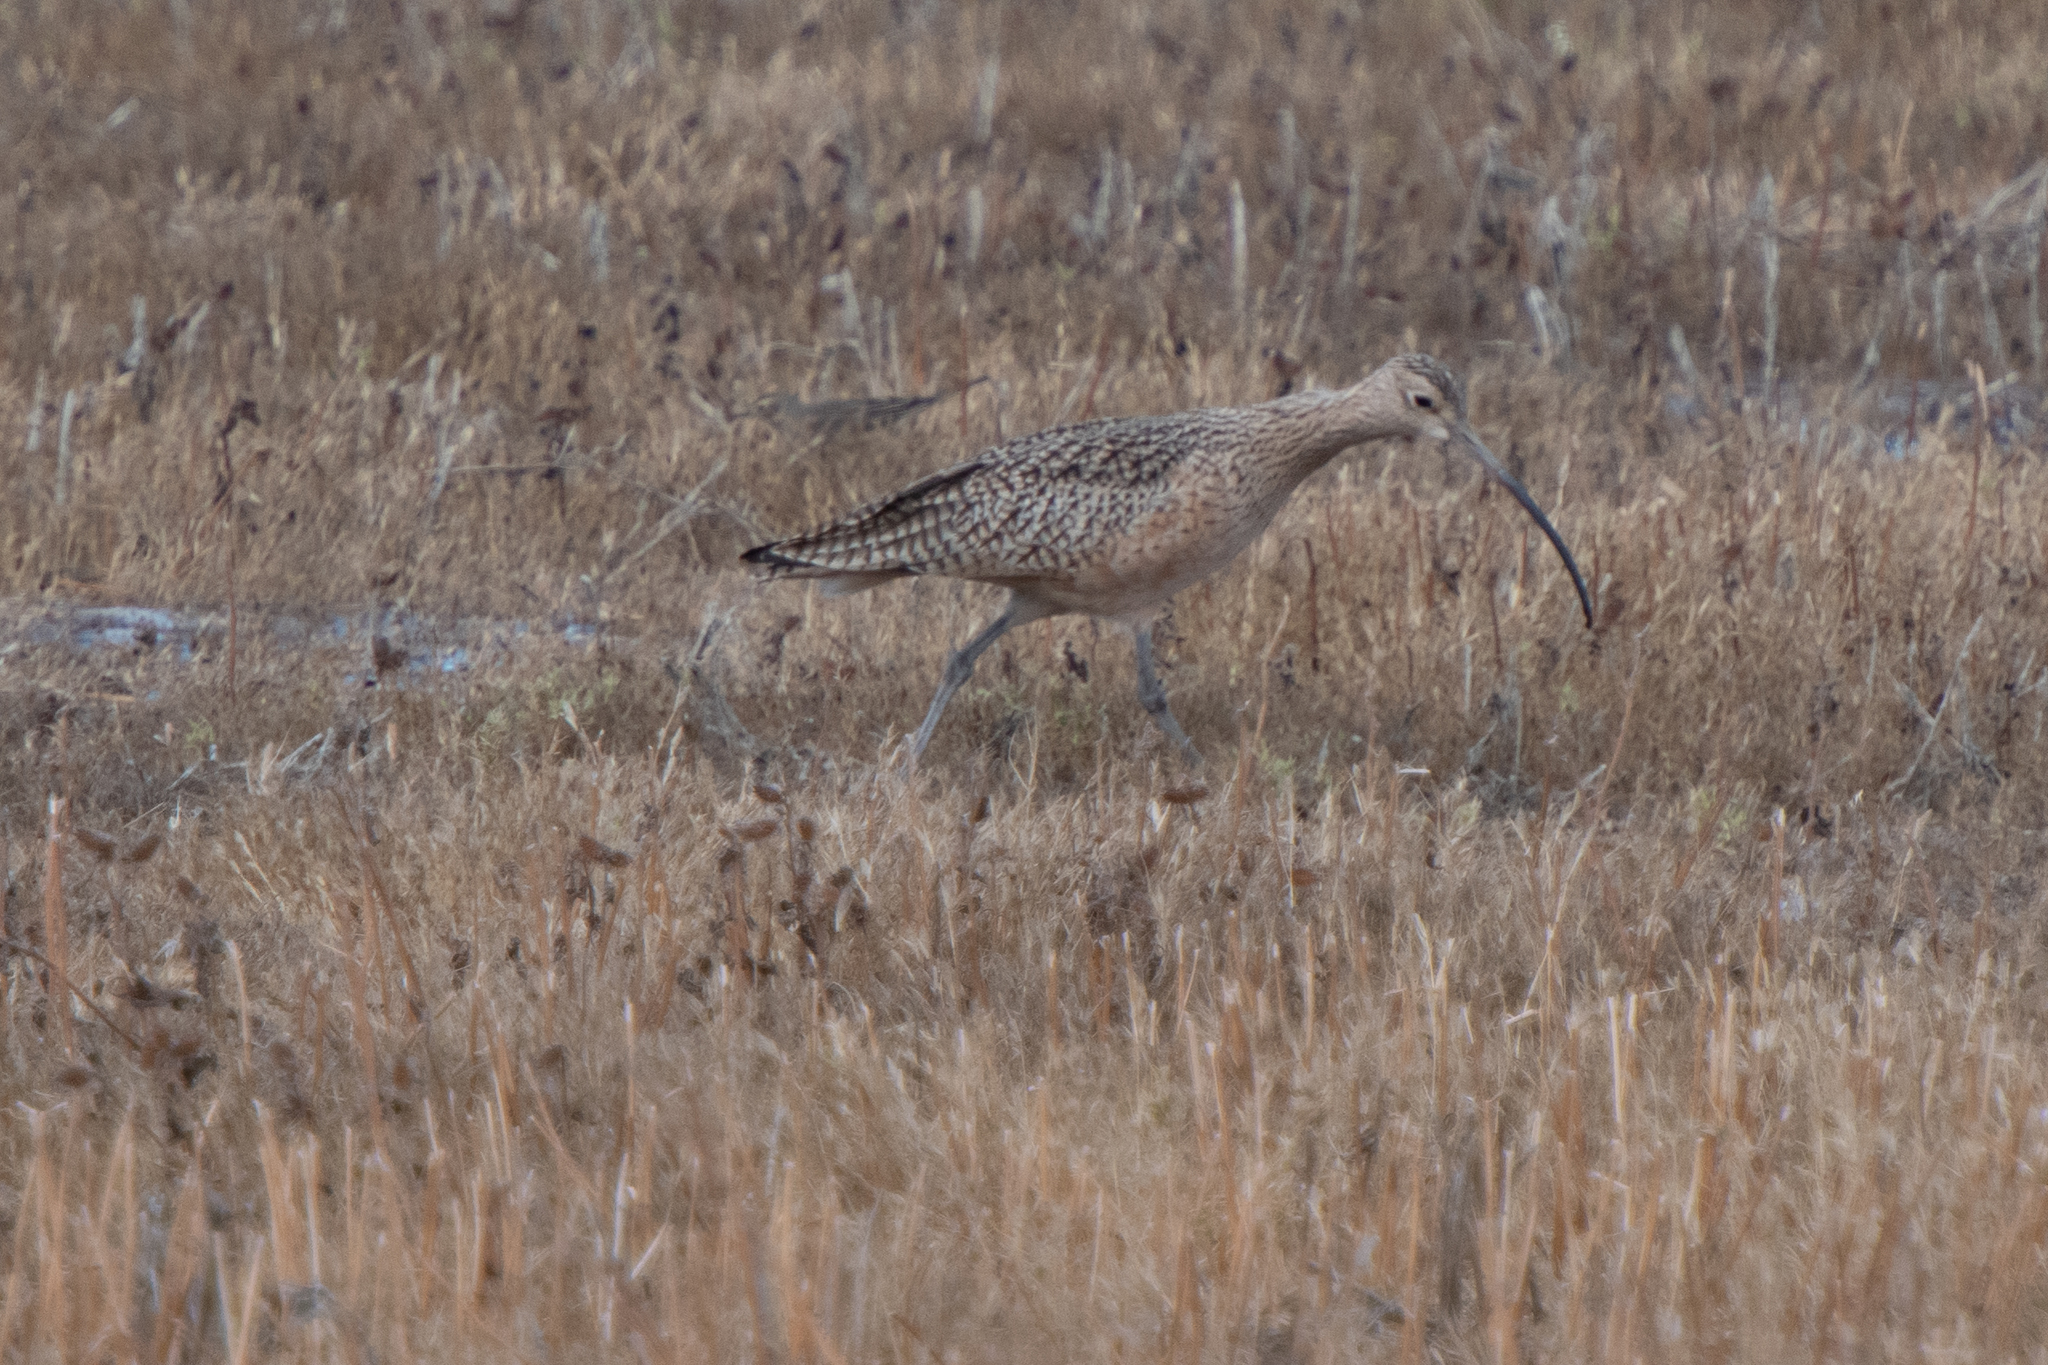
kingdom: Animalia
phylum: Chordata
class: Aves
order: Charadriiformes
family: Scolopacidae
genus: Numenius
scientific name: Numenius americanus
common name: Long-billed curlew
